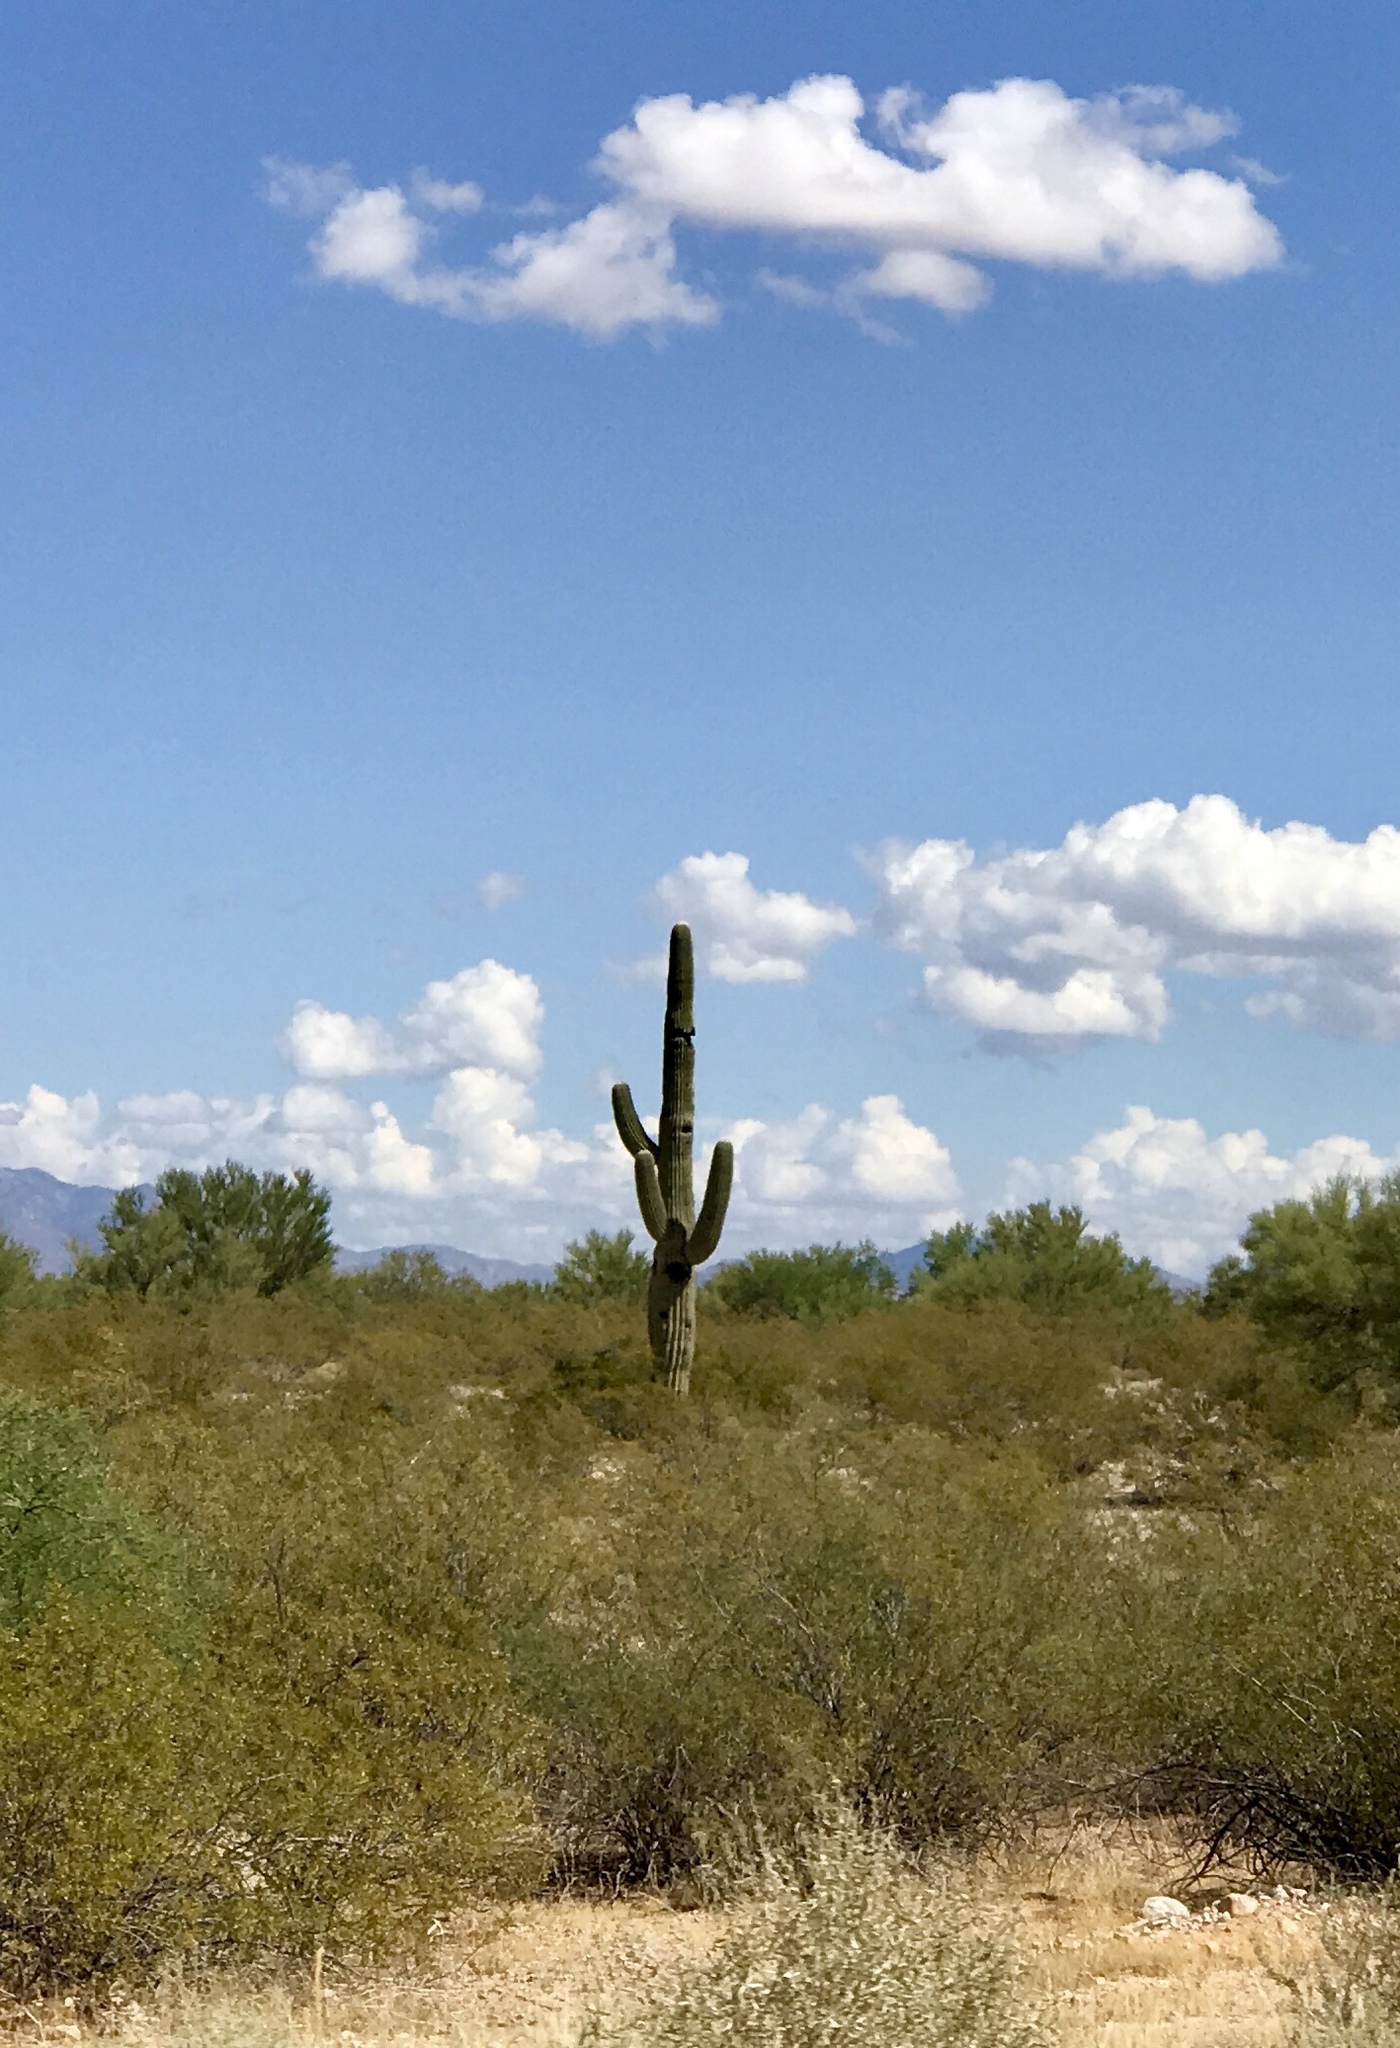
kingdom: Plantae
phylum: Tracheophyta
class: Magnoliopsida
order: Caryophyllales
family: Cactaceae
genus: Carnegiea
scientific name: Carnegiea gigantea
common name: Saguaro
